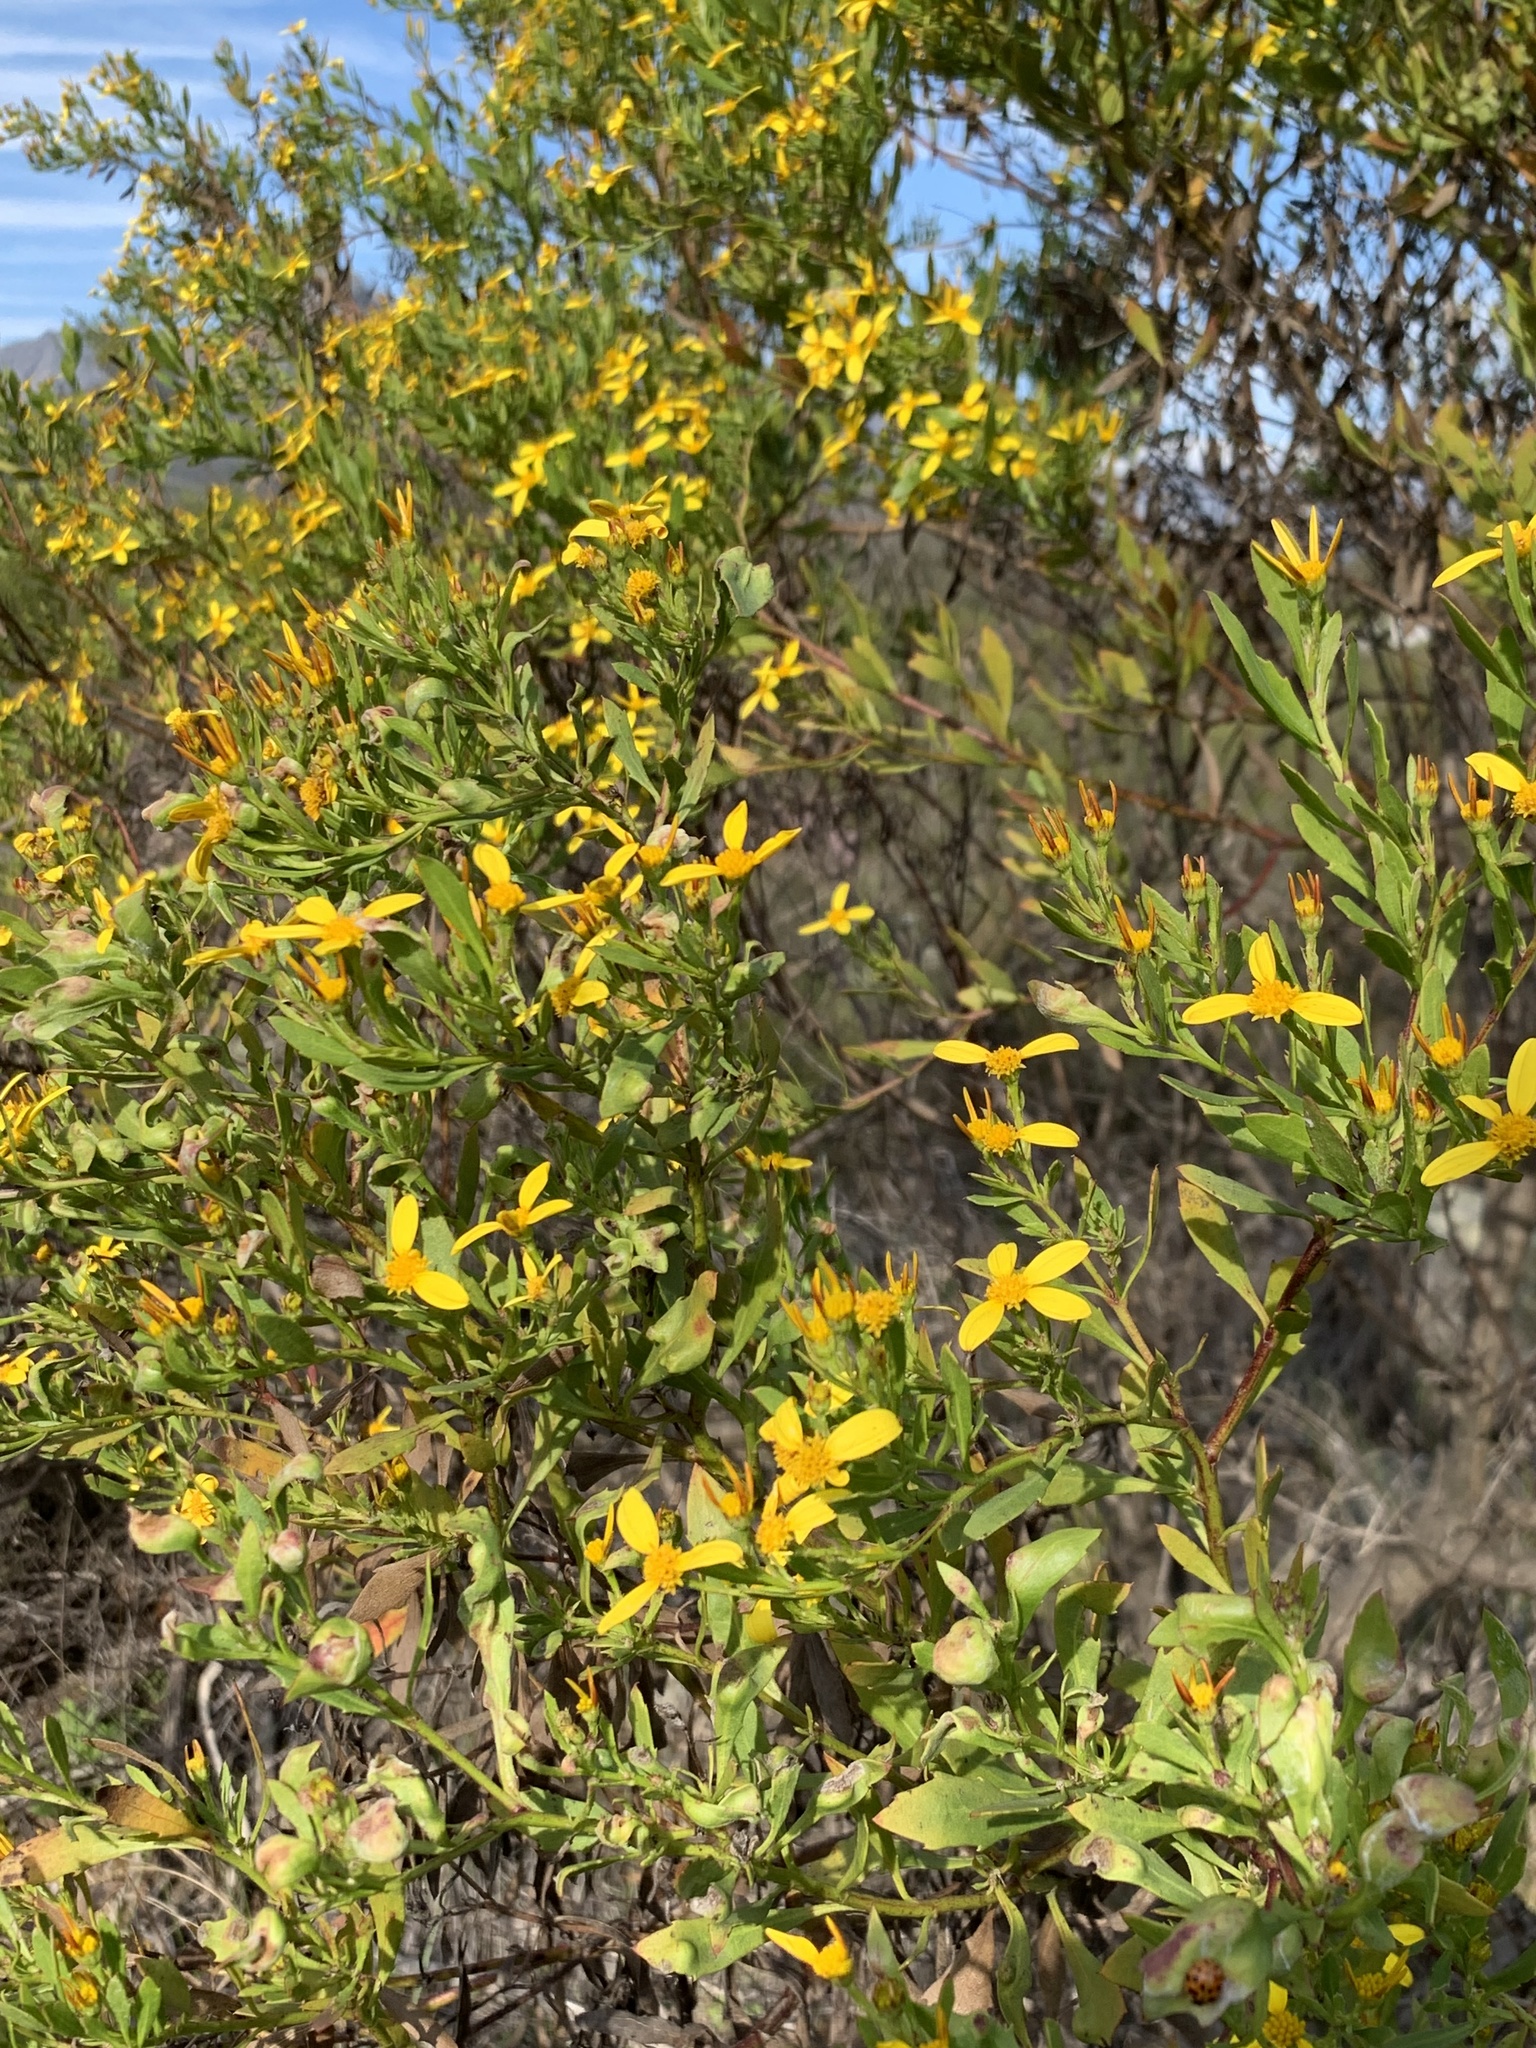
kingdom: Plantae
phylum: Tracheophyta
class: Magnoliopsida
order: Asterales
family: Asteraceae
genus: Osteospermum
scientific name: Osteospermum moniliferum
